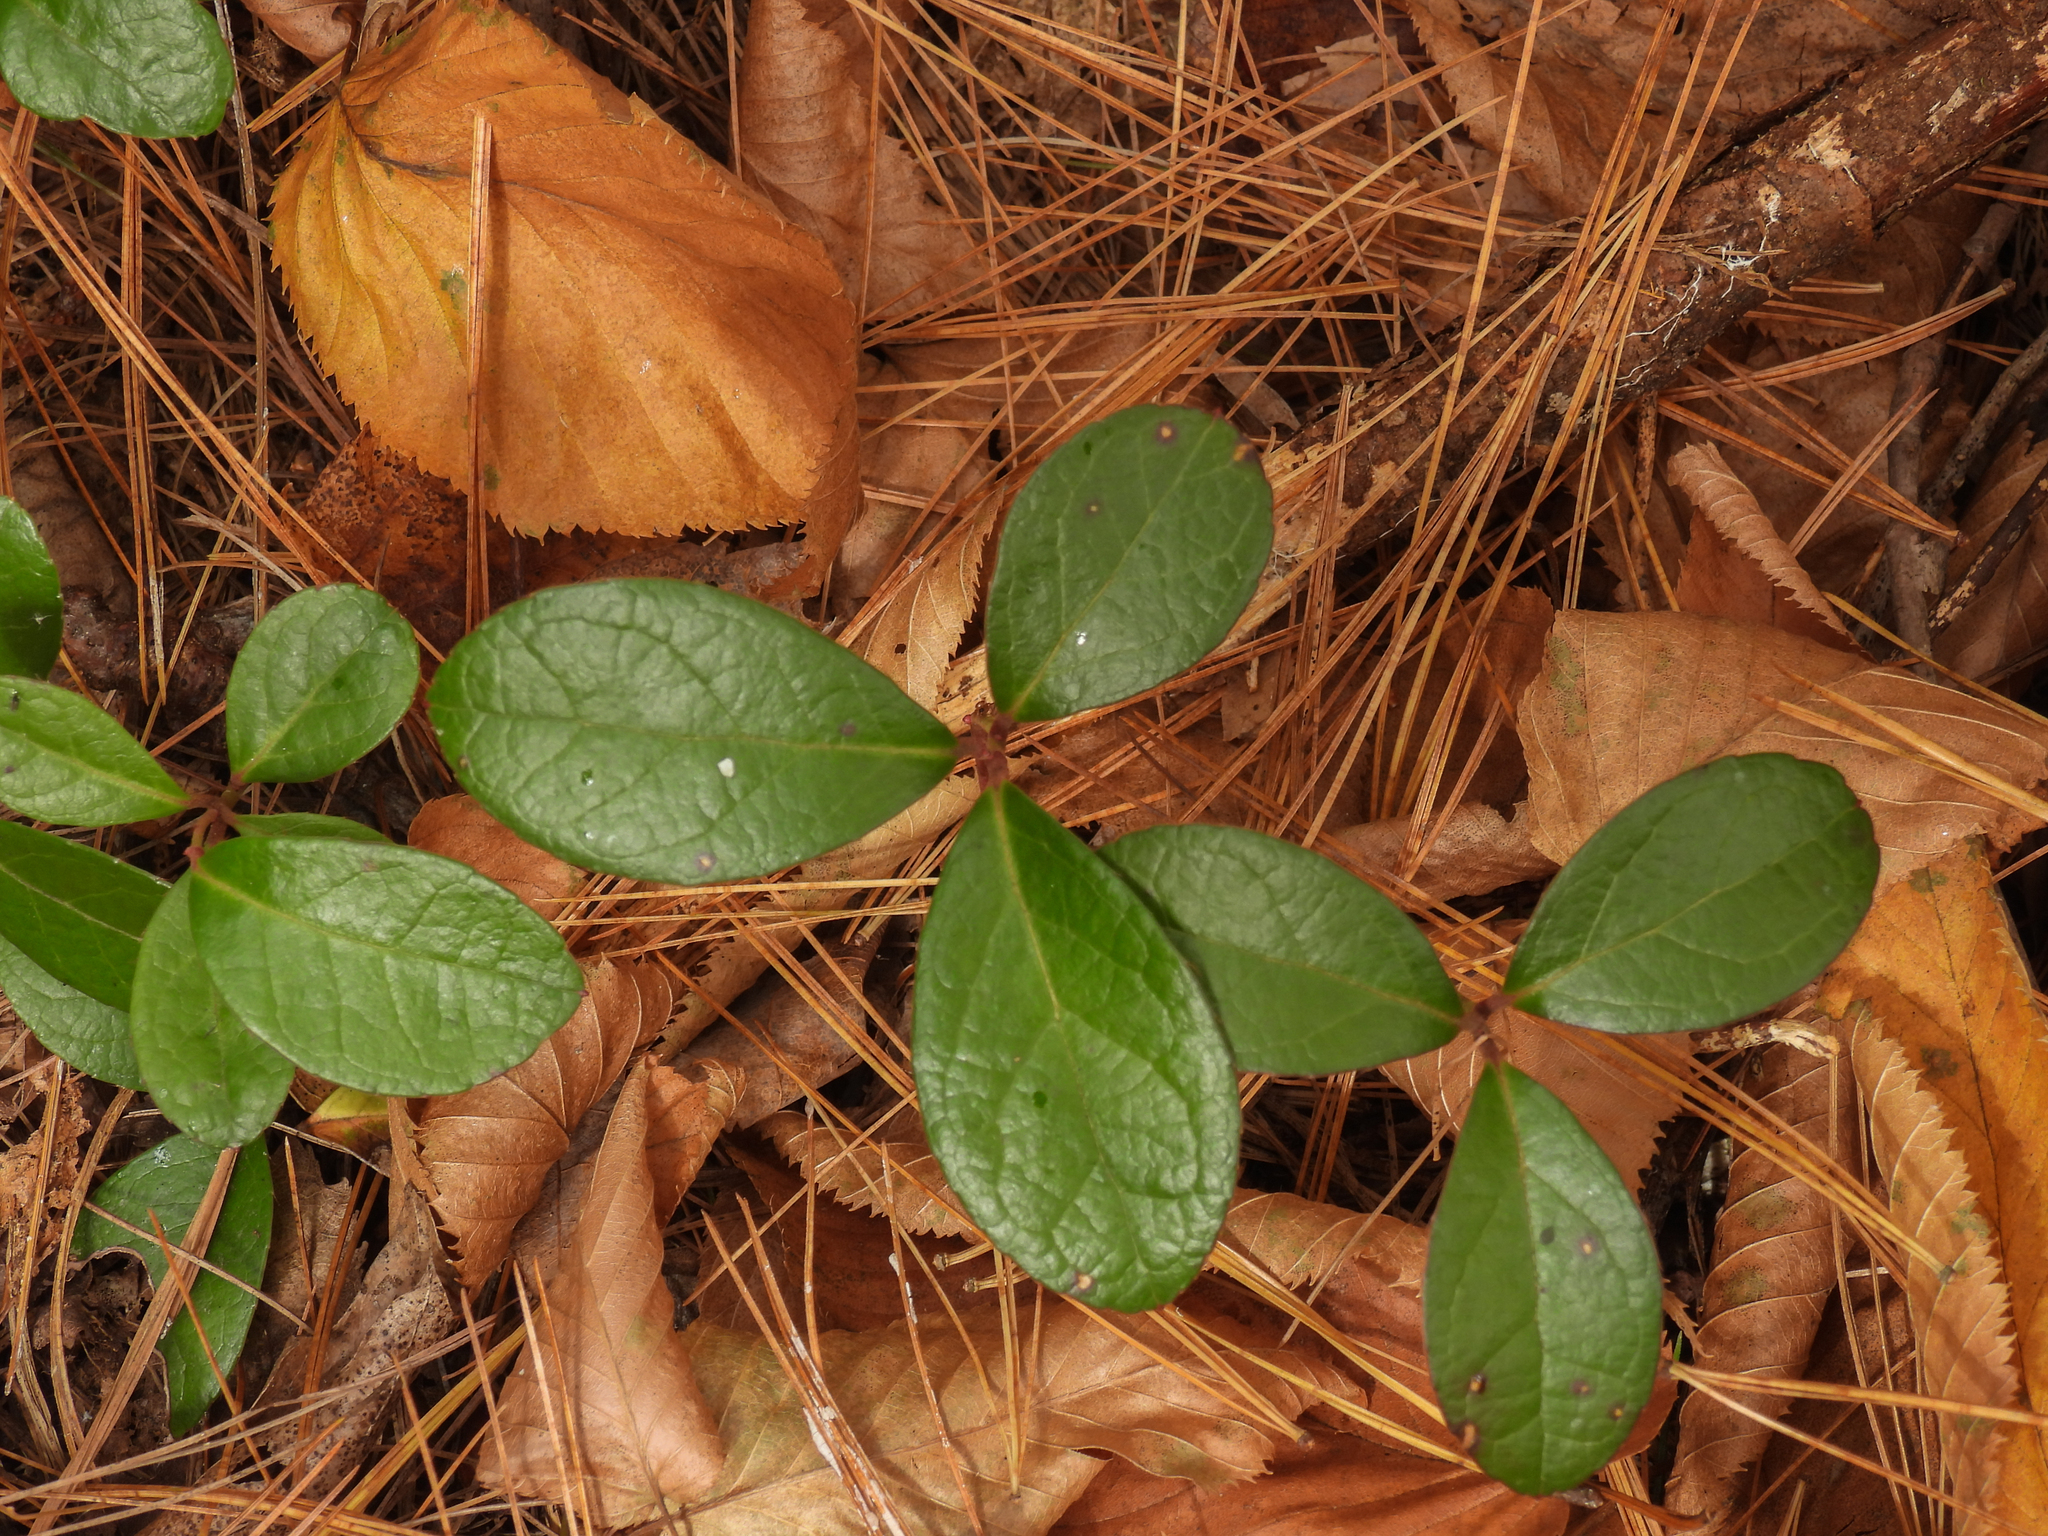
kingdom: Plantae
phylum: Tracheophyta
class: Magnoliopsida
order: Ericales
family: Ericaceae
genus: Gaultheria
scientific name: Gaultheria procumbens
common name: Checkerberry
